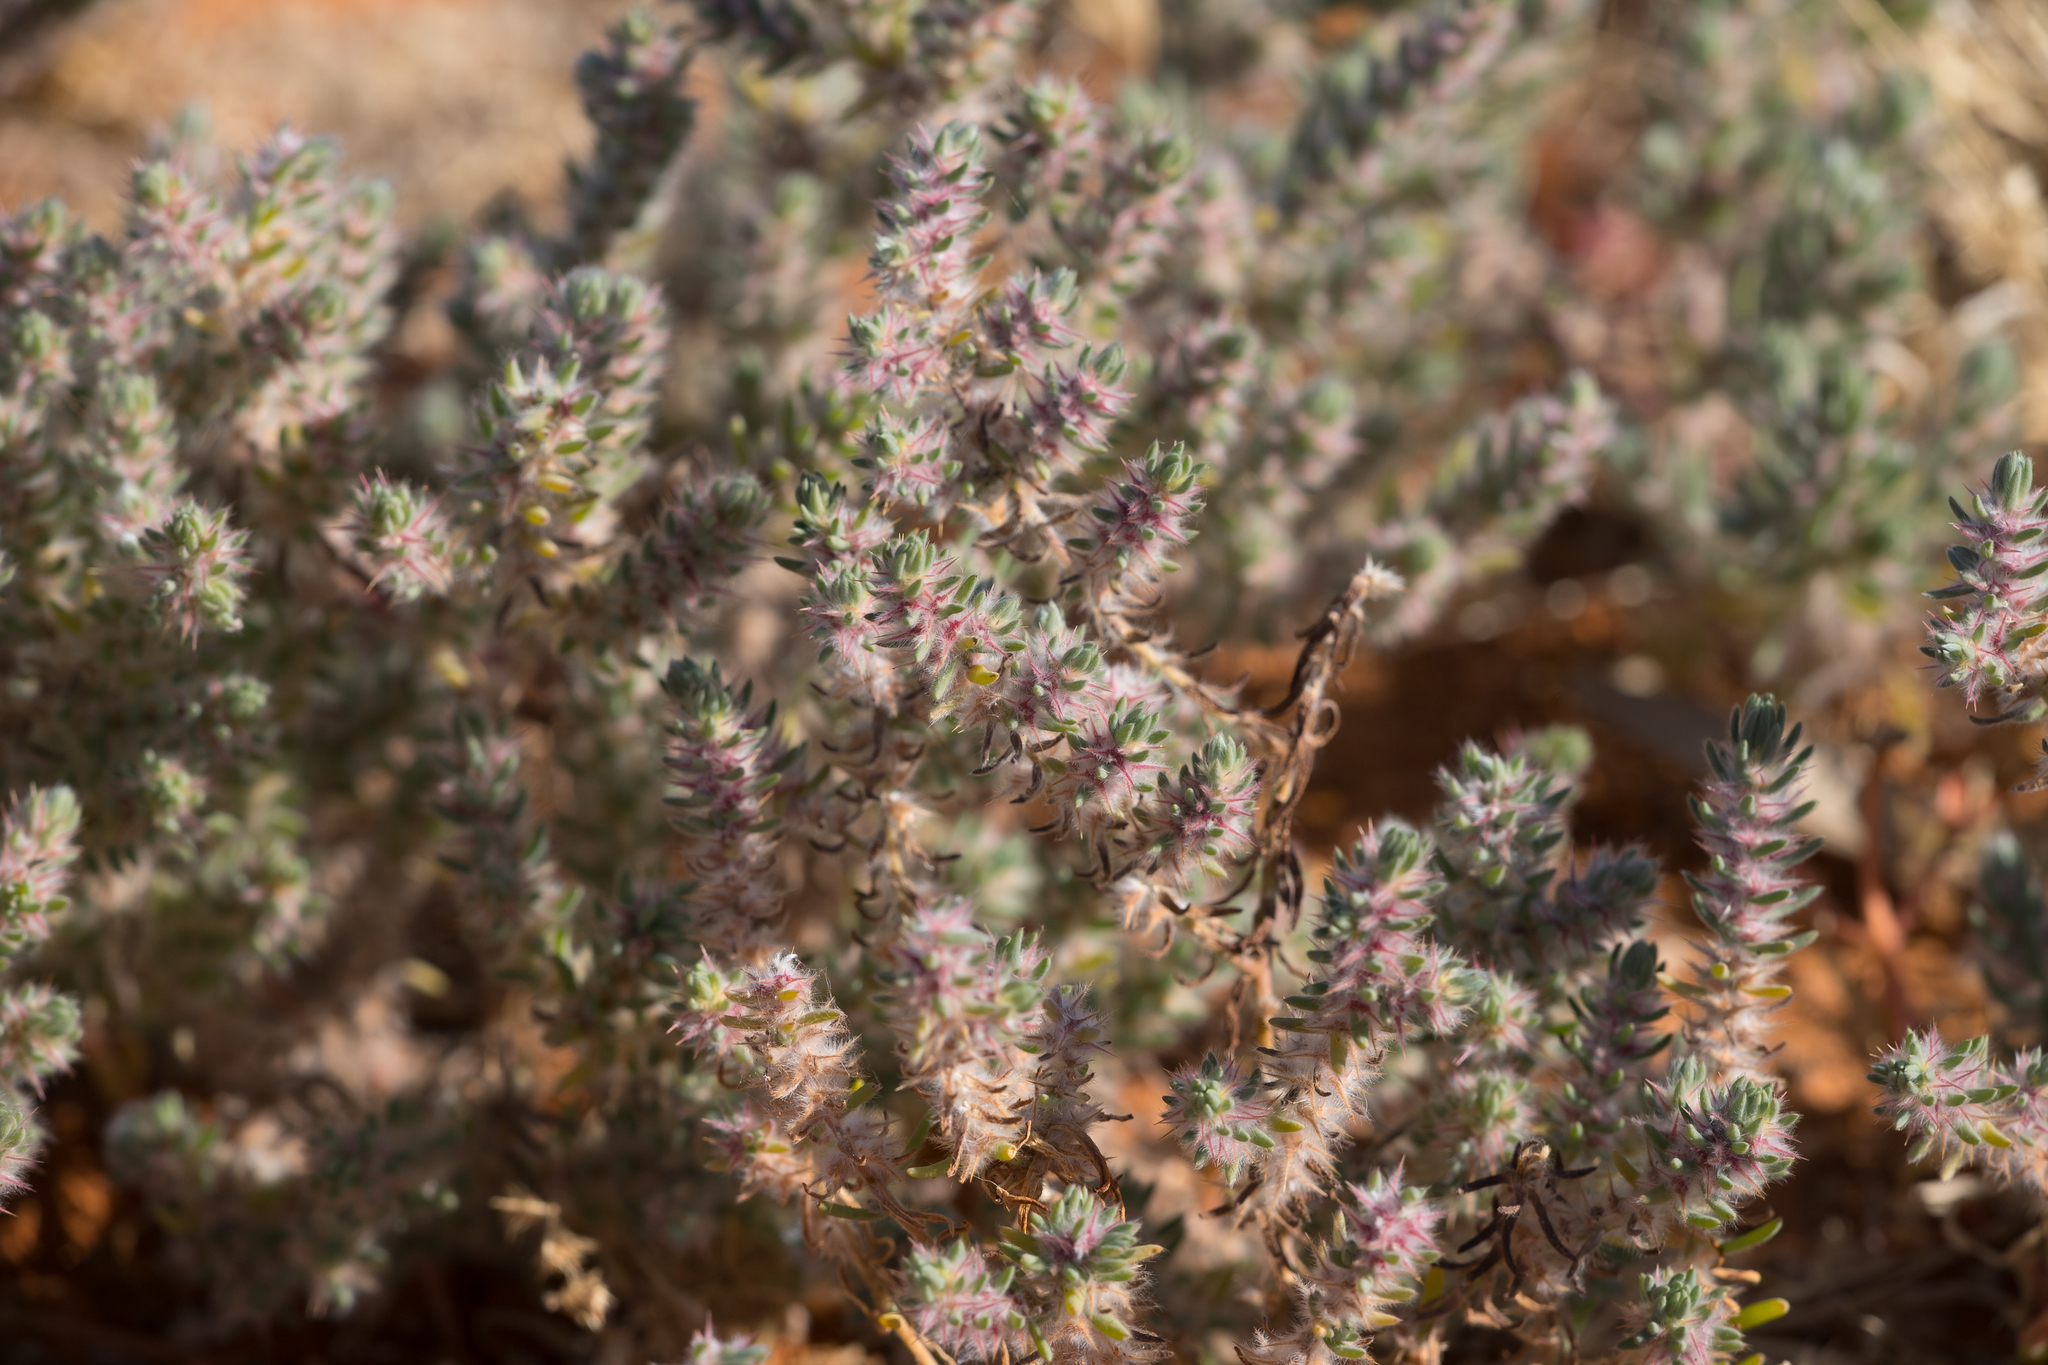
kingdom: Plantae
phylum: Tracheophyta
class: Magnoliopsida
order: Caryophyllales
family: Amaranthaceae
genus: Sclerolaena
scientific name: Sclerolaena lanicuspis
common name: Copperbur
